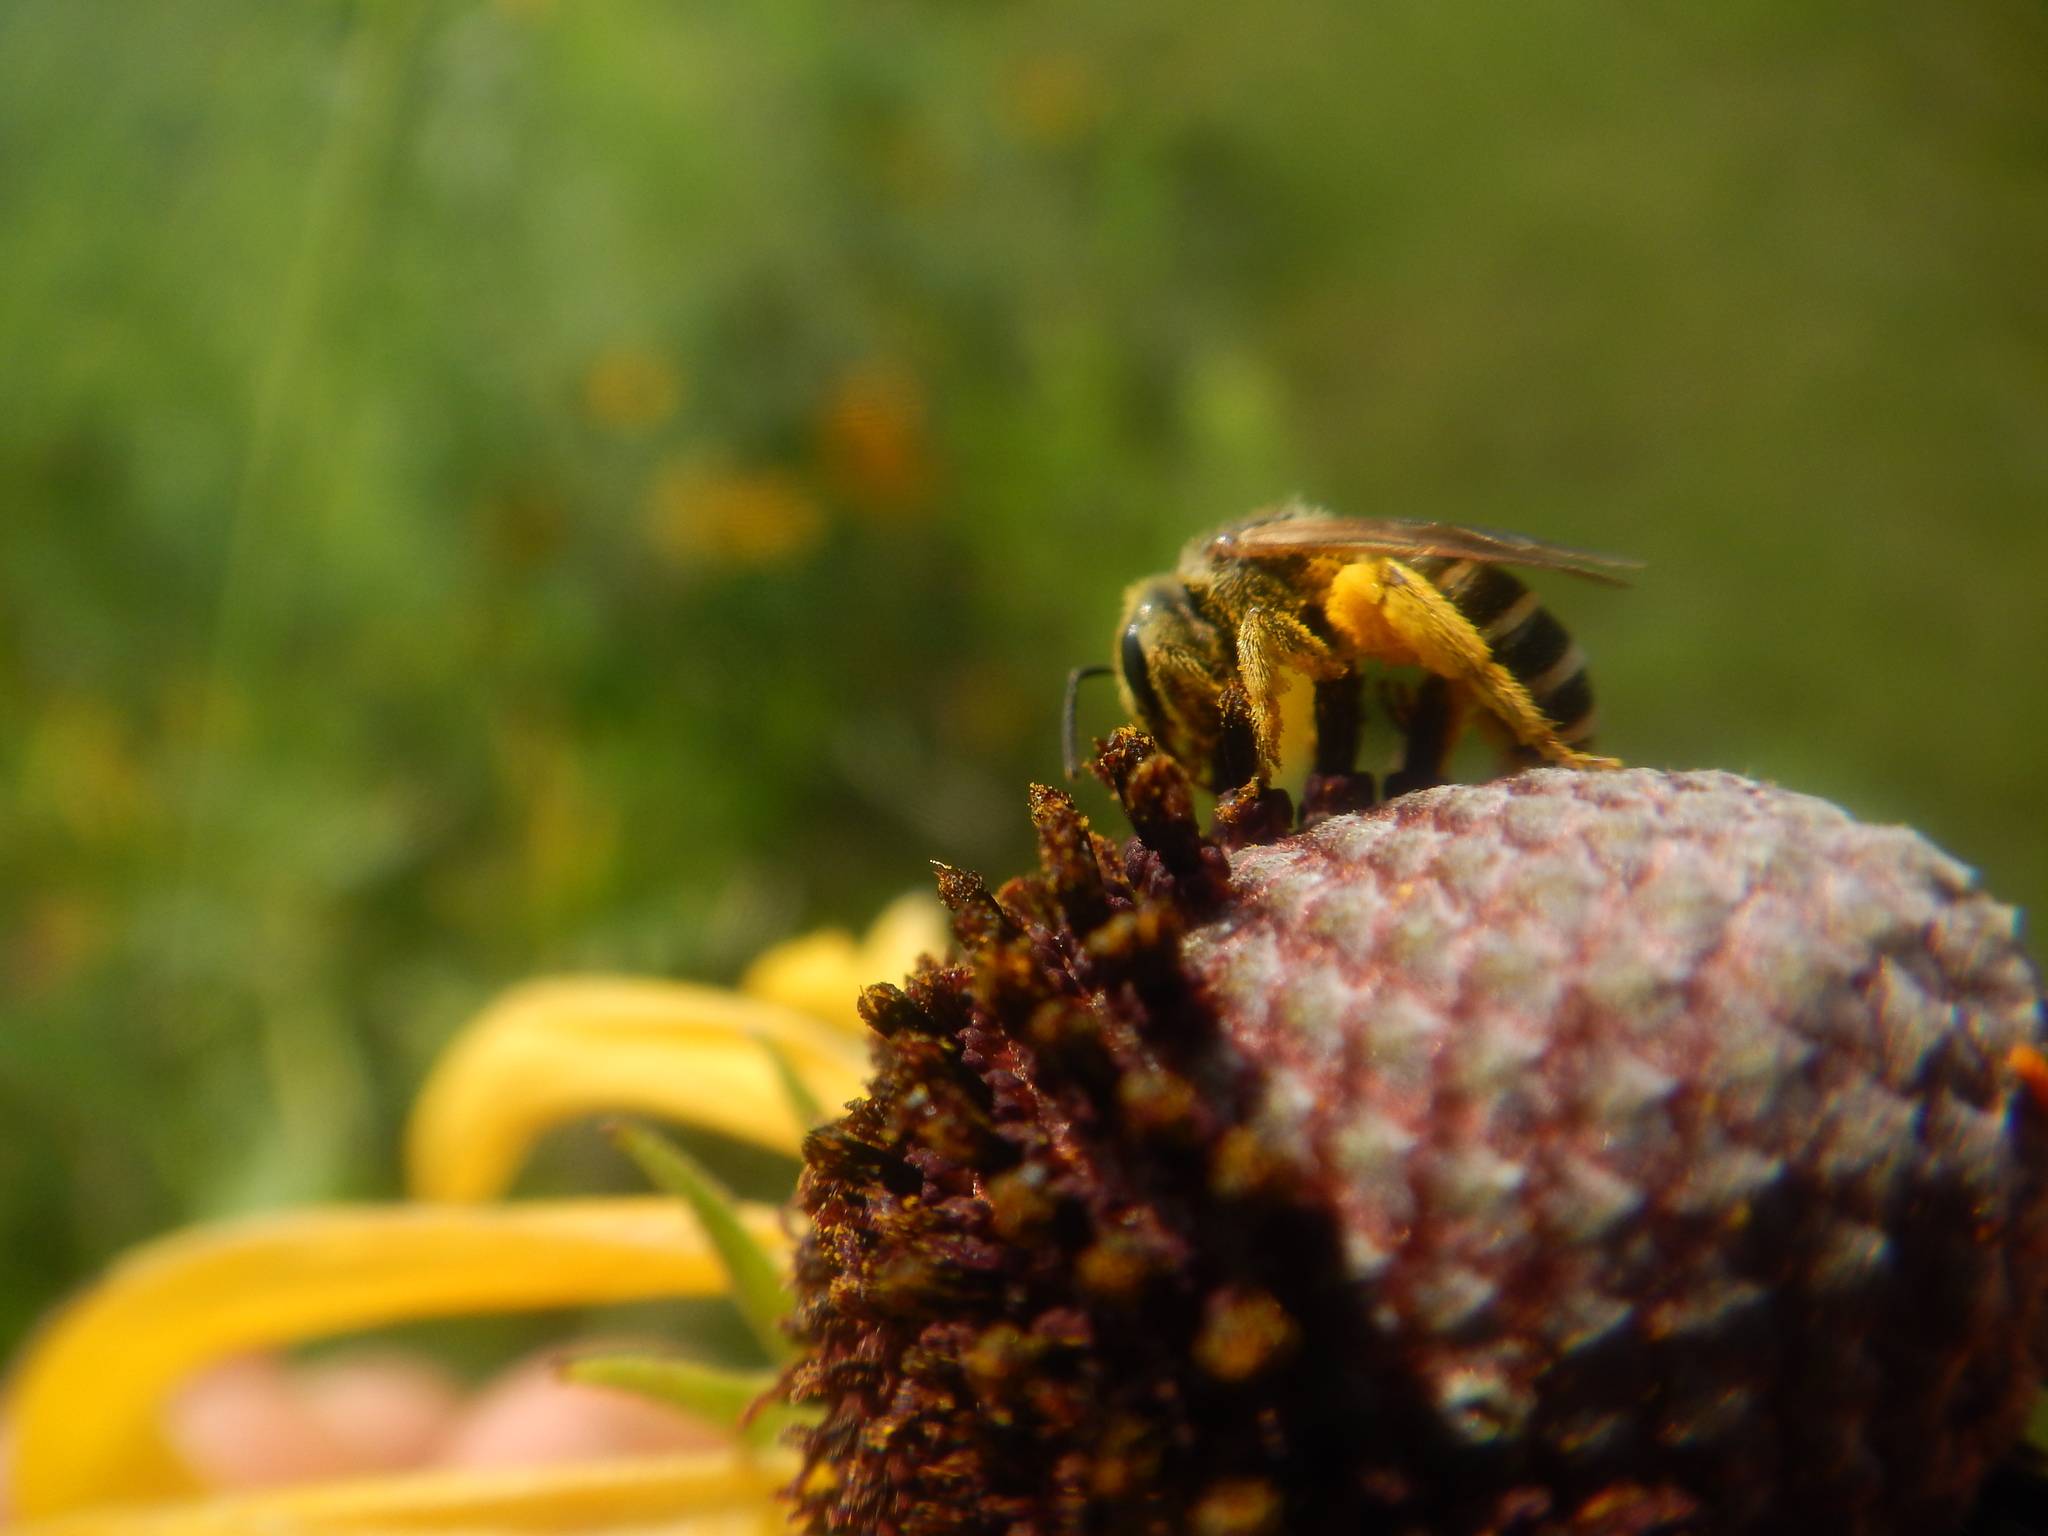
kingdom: Animalia
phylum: Arthropoda
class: Insecta
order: Hymenoptera
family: Halictidae
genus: Halictus
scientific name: Halictus ligatus
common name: Ligated furrow bee
